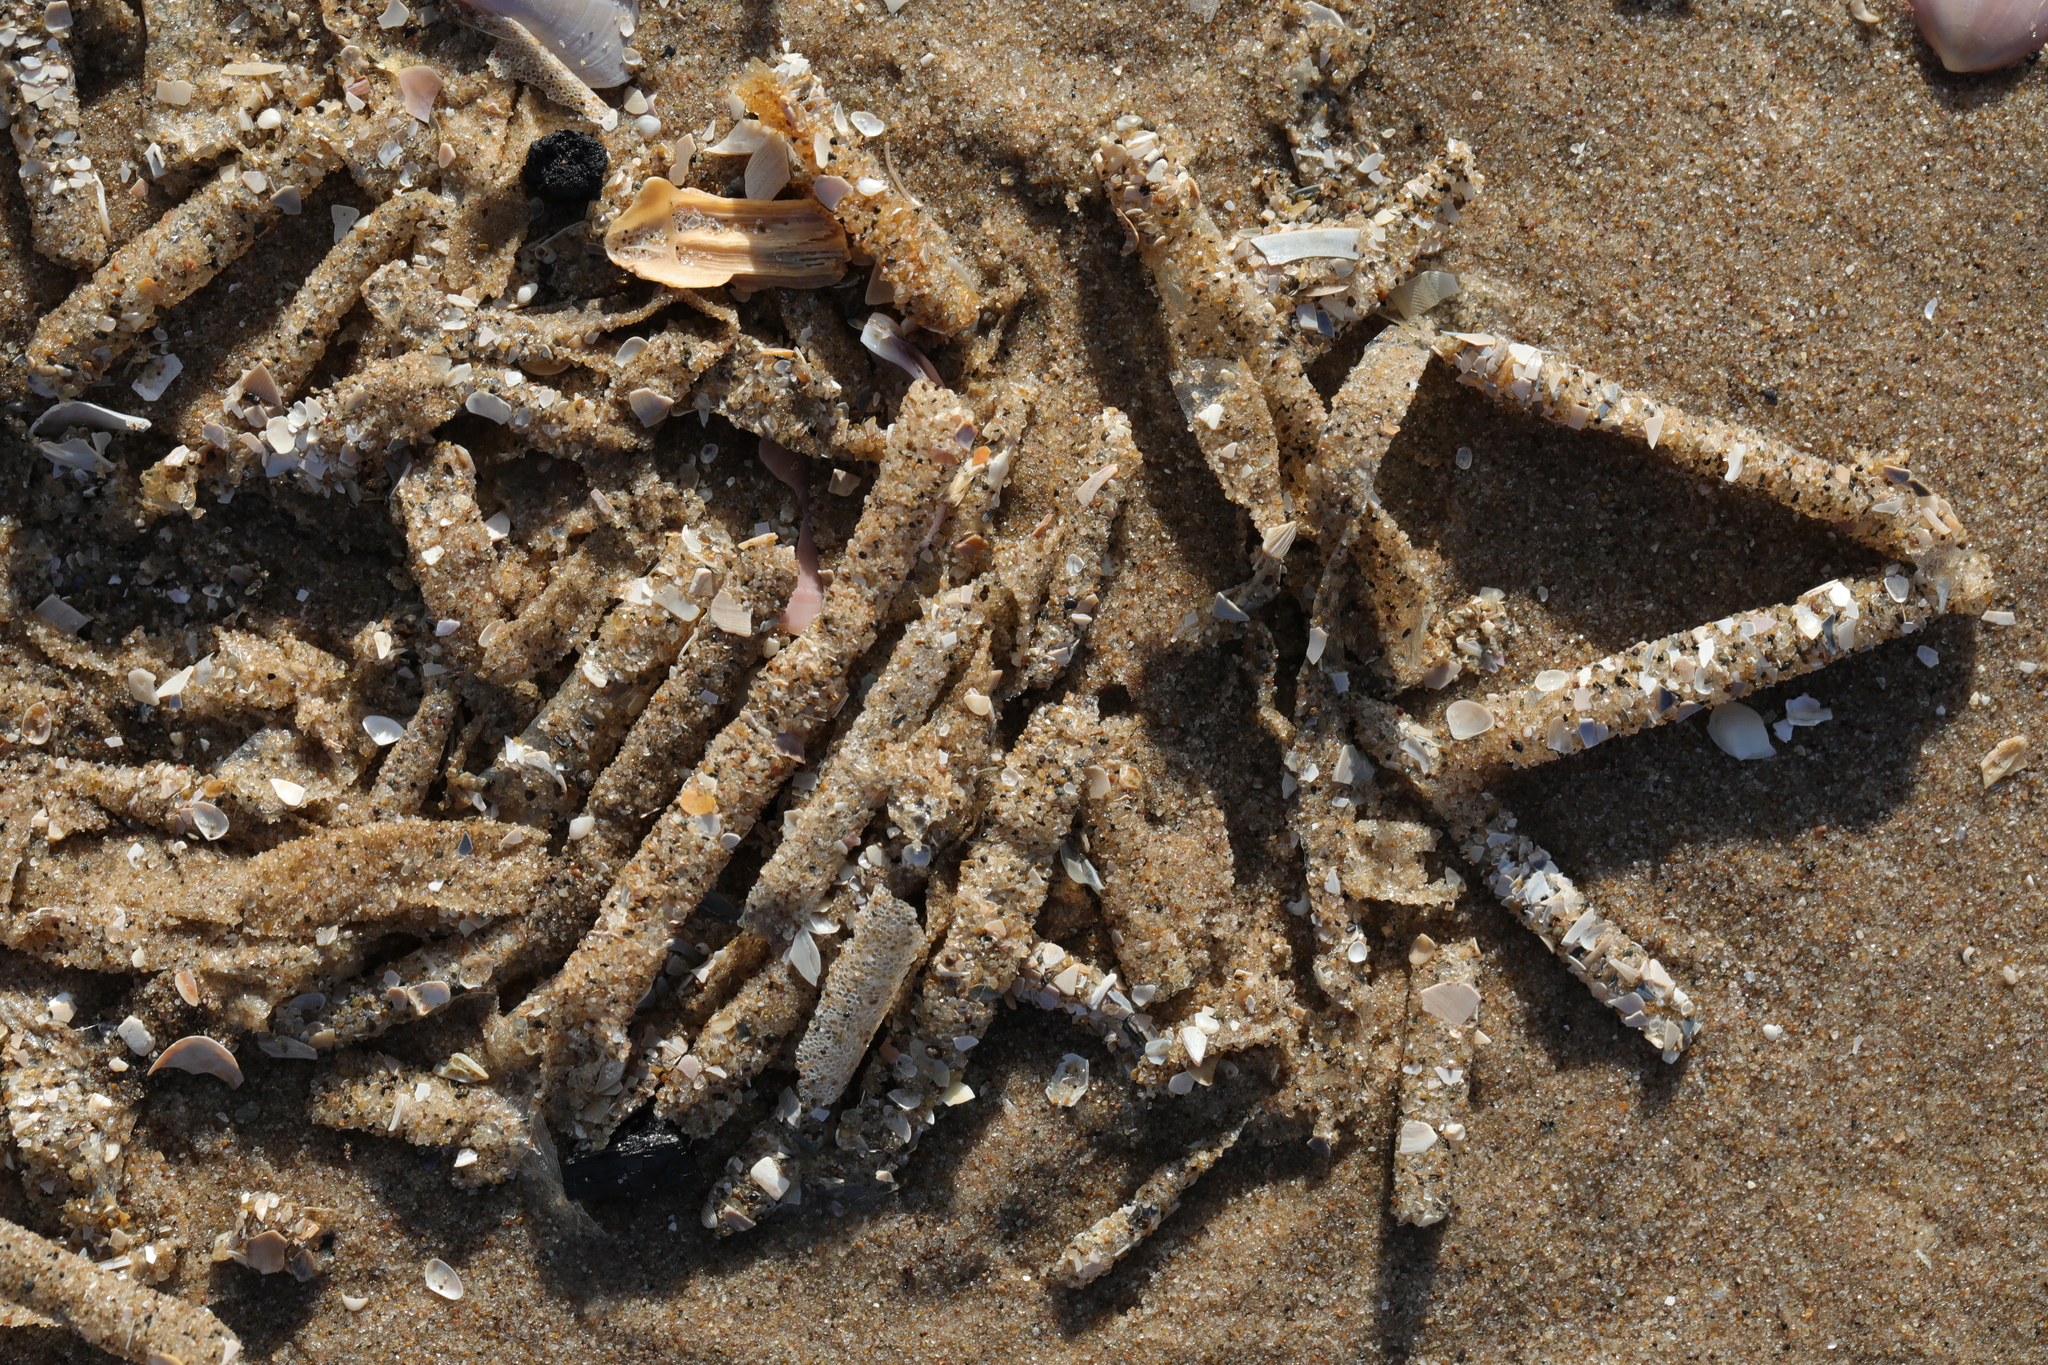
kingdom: Animalia
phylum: Annelida
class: Polychaeta
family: Terebellidae
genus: Lanice
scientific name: Lanice conchilega
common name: Sand mason
